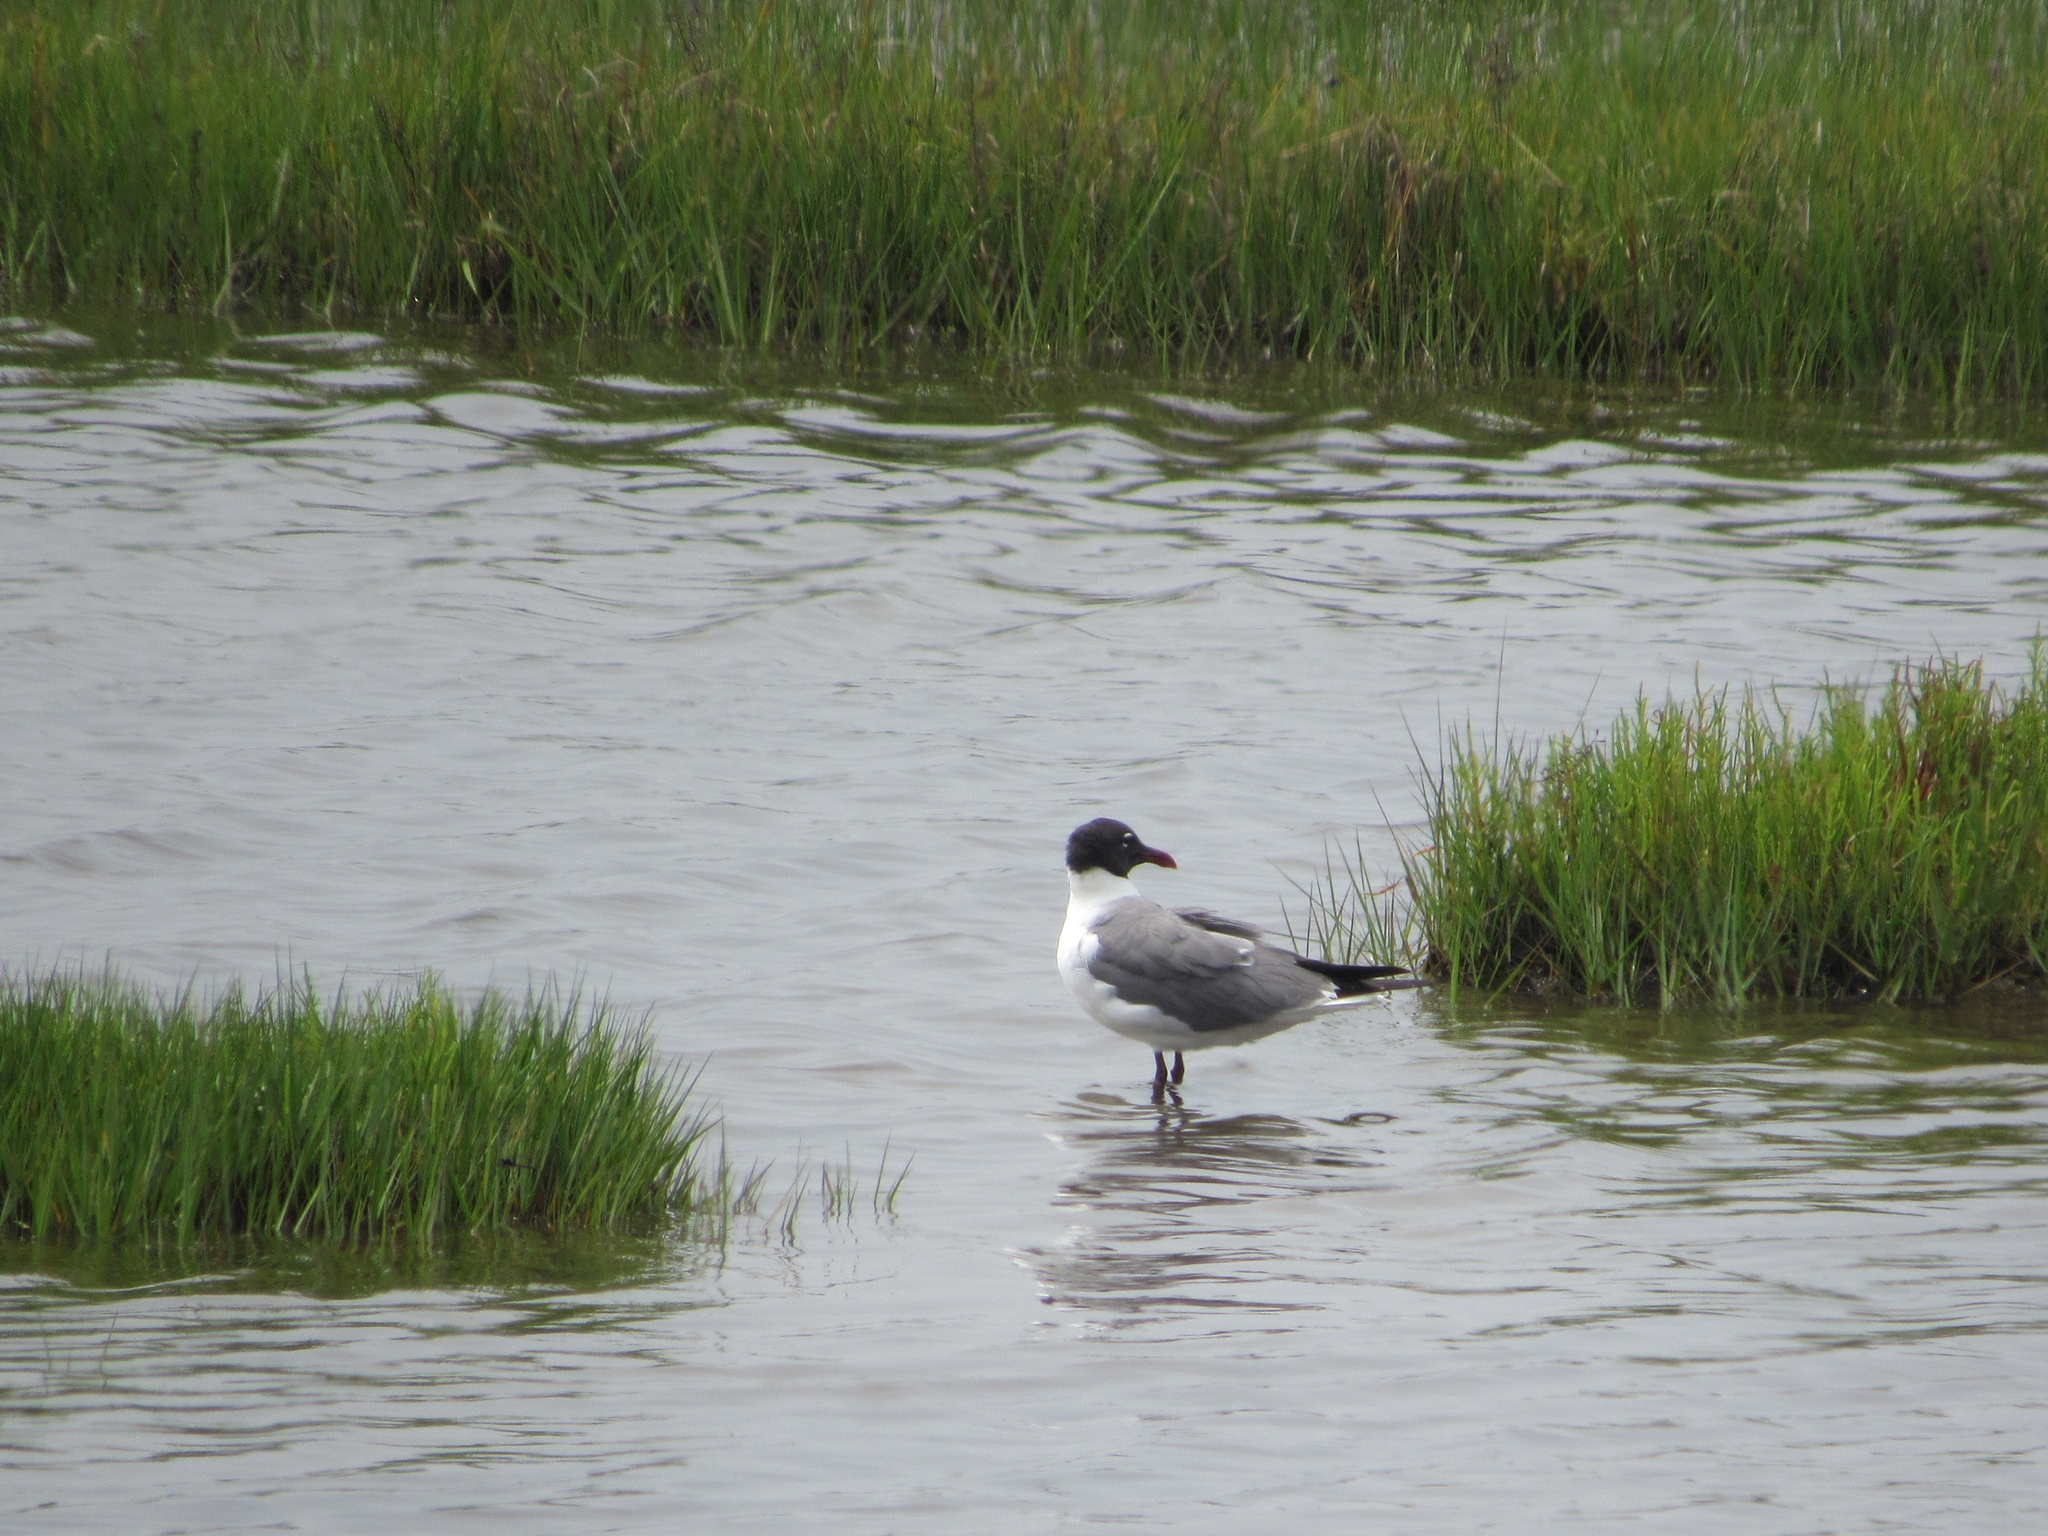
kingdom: Animalia
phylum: Chordata
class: Aves
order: Charadriiformes
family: Laridae
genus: Leucophaeus
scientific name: Leucophaeus atricilla
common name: Laughing gull
